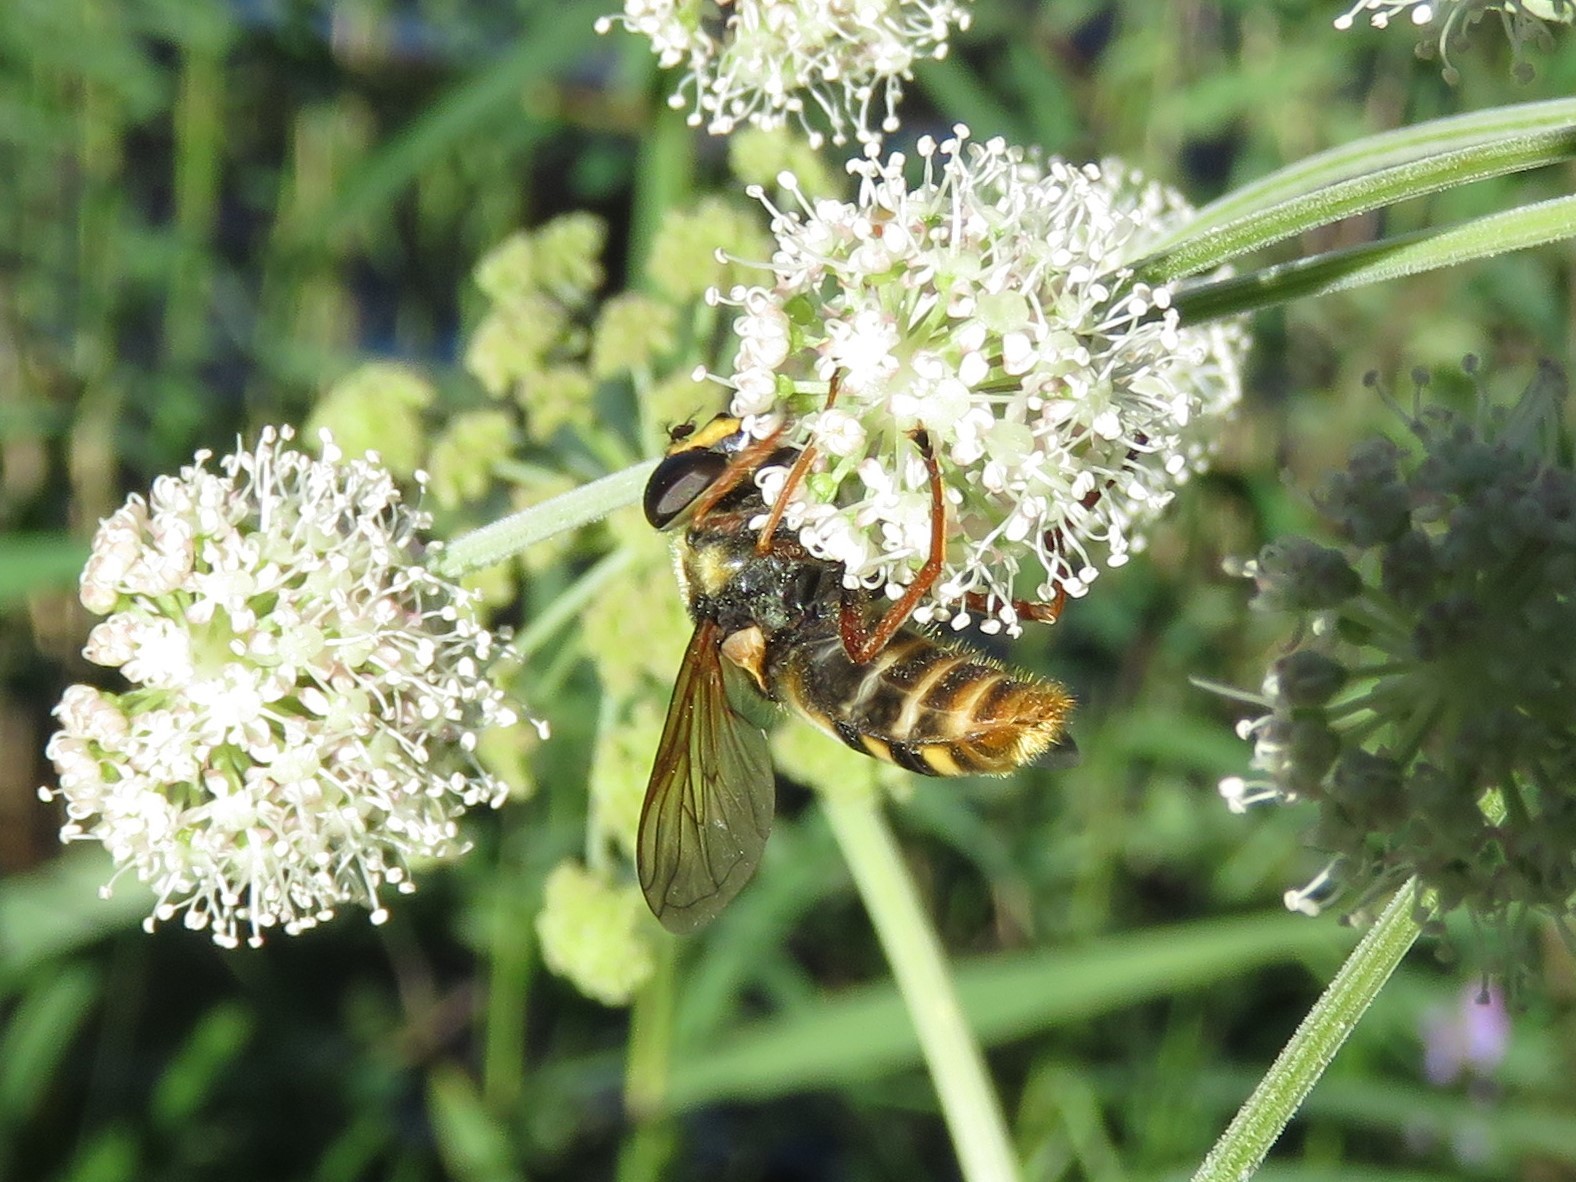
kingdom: Animalia
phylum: Arthropoda
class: Insecta
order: Diptera
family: Syrphidae
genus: Sericomyia
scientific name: Sericomyia silentis
